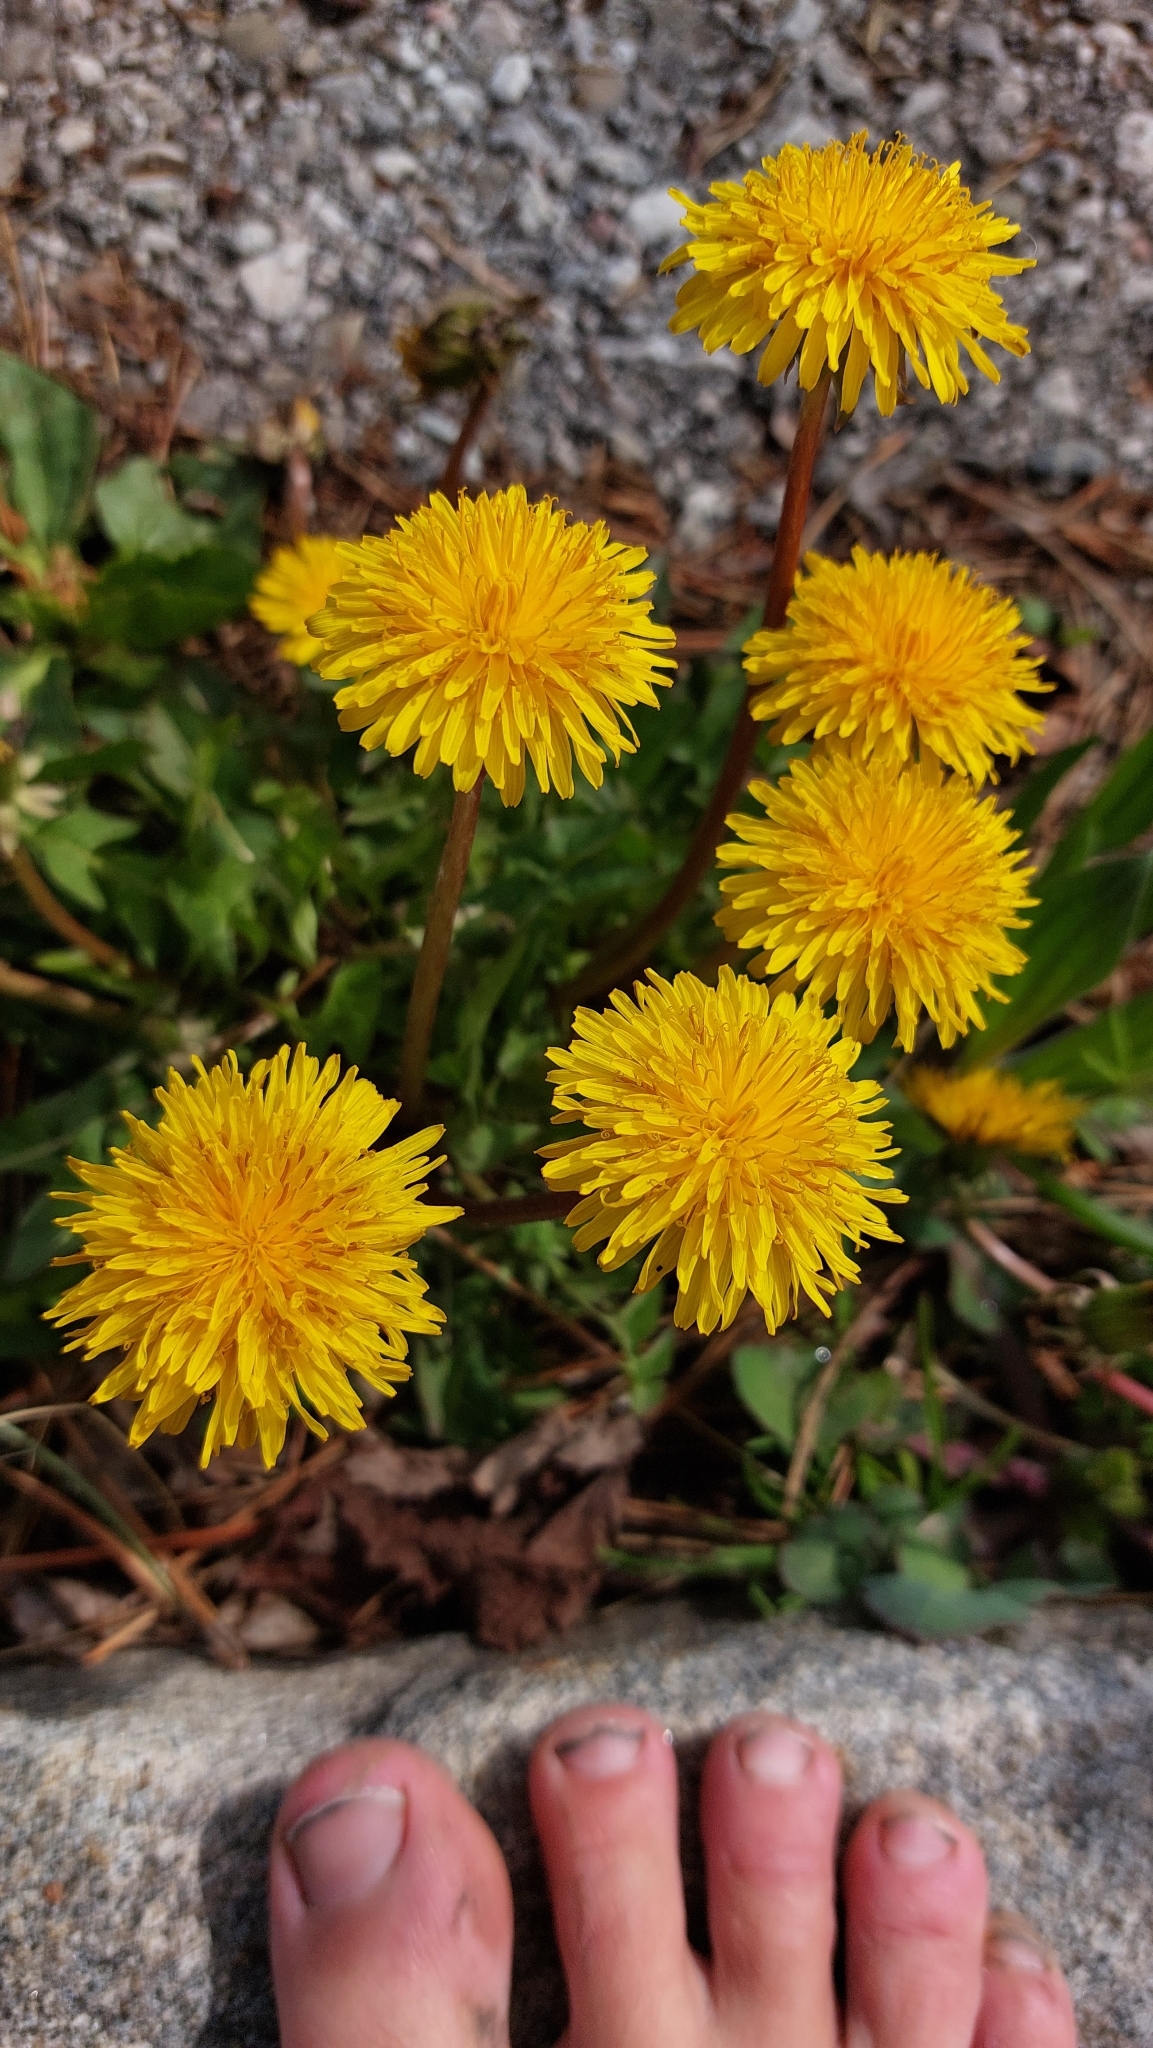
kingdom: Plantae
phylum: Tracheophyta
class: Magnoliopsida
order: Asterales
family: Asteraceae
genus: Taraxacum
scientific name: Taraxacum
